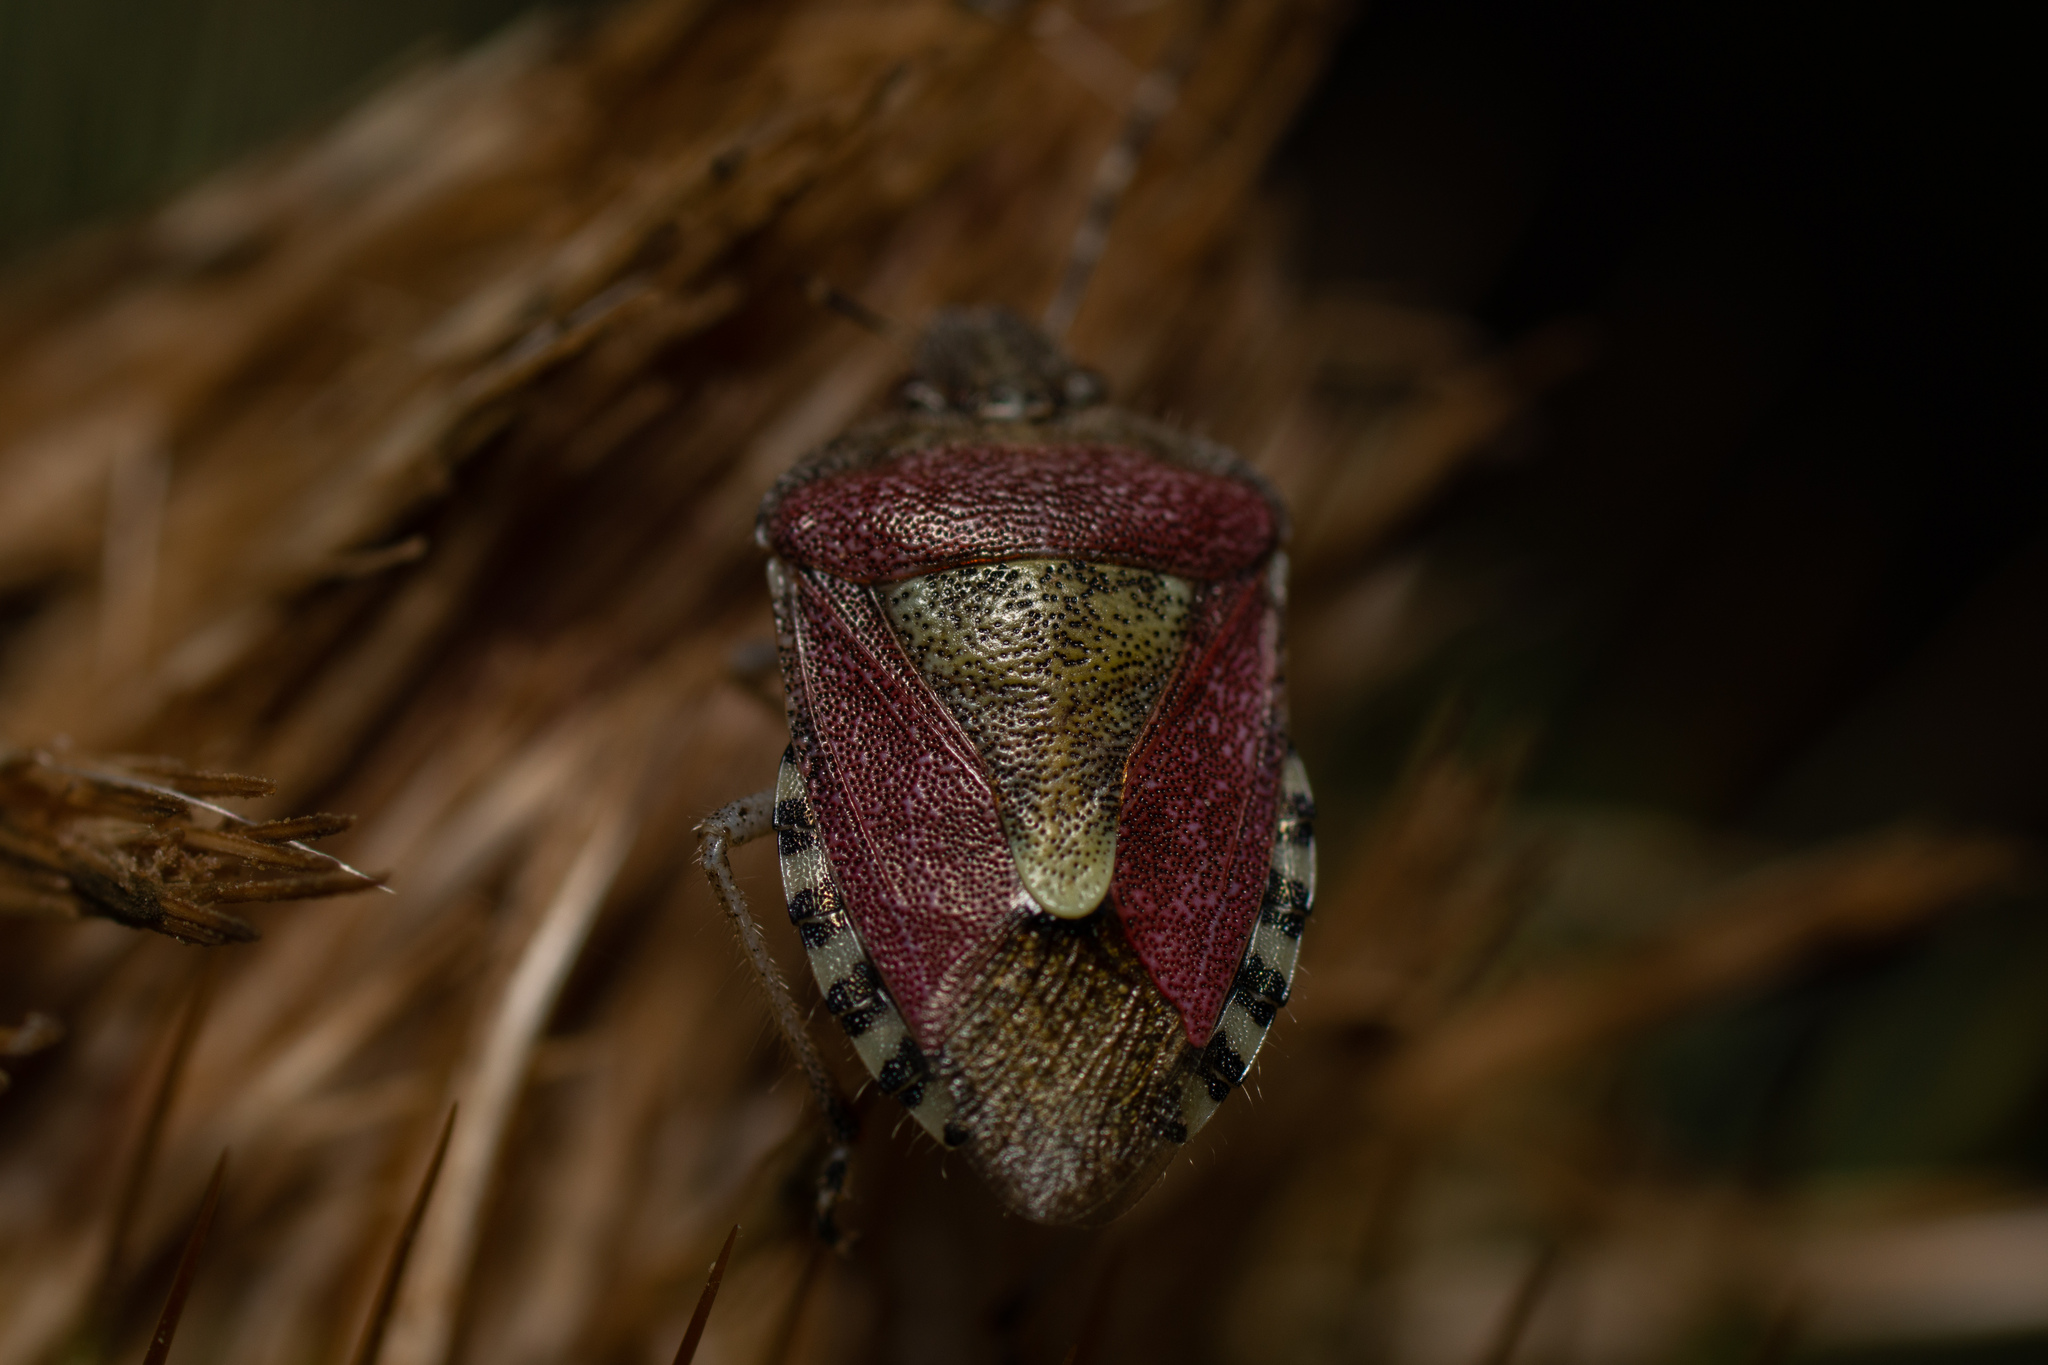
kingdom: Animalia
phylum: Arthropoda
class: Insecta
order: Hemiptera
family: Pentatomidae
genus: Dolycoris
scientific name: Dolycoris baccarum
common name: Sloe bug
